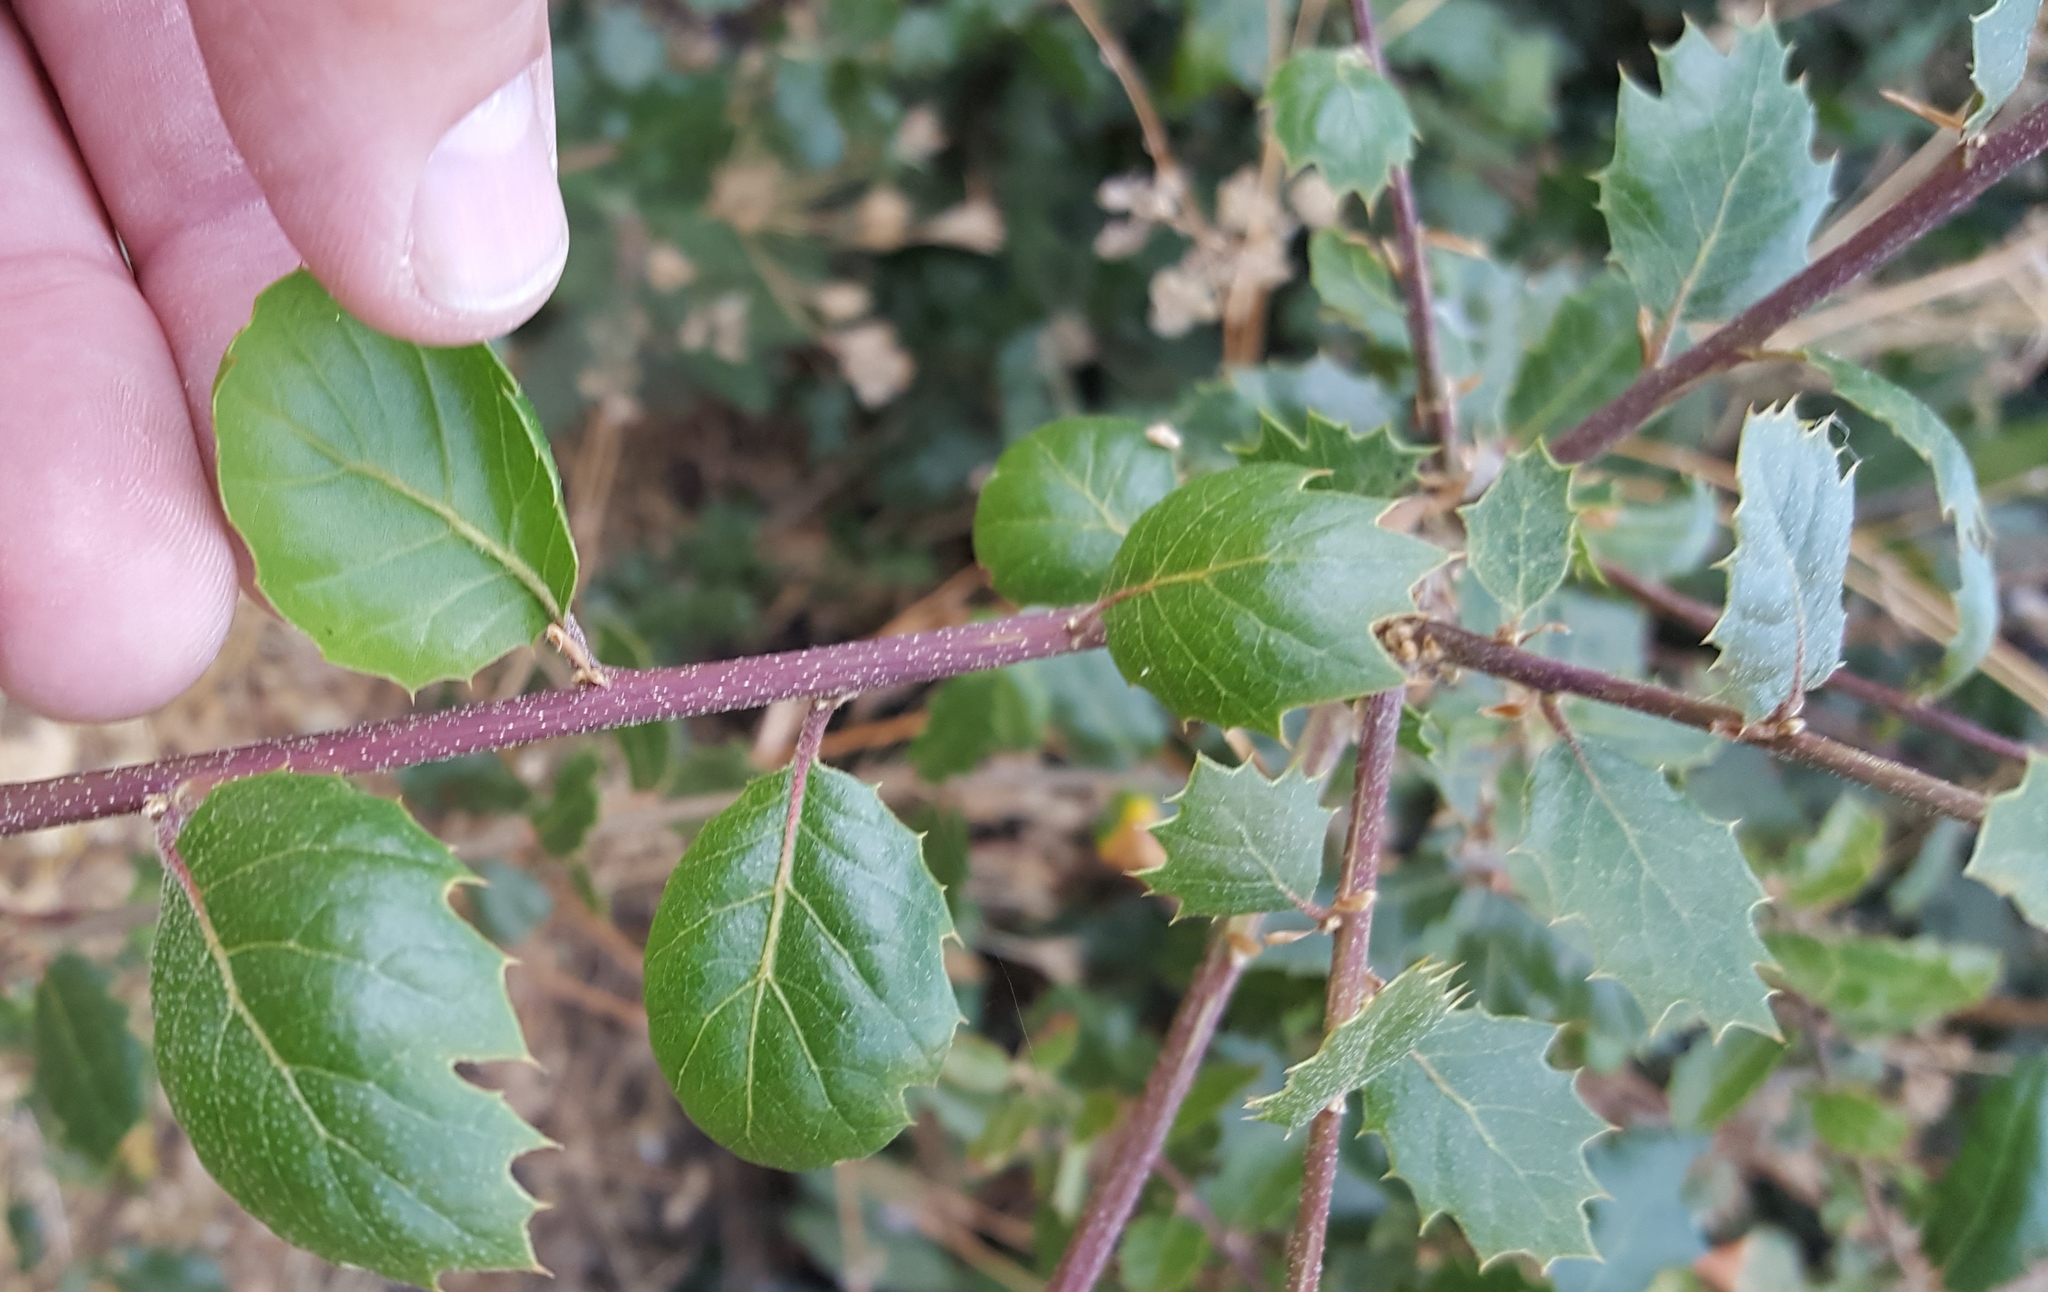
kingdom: Plantae
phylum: Tracheophyta
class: Magnoliopsida
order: Fagales
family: Fagaceae
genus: Quercus
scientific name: Quercus agrifolia
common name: California live oak
